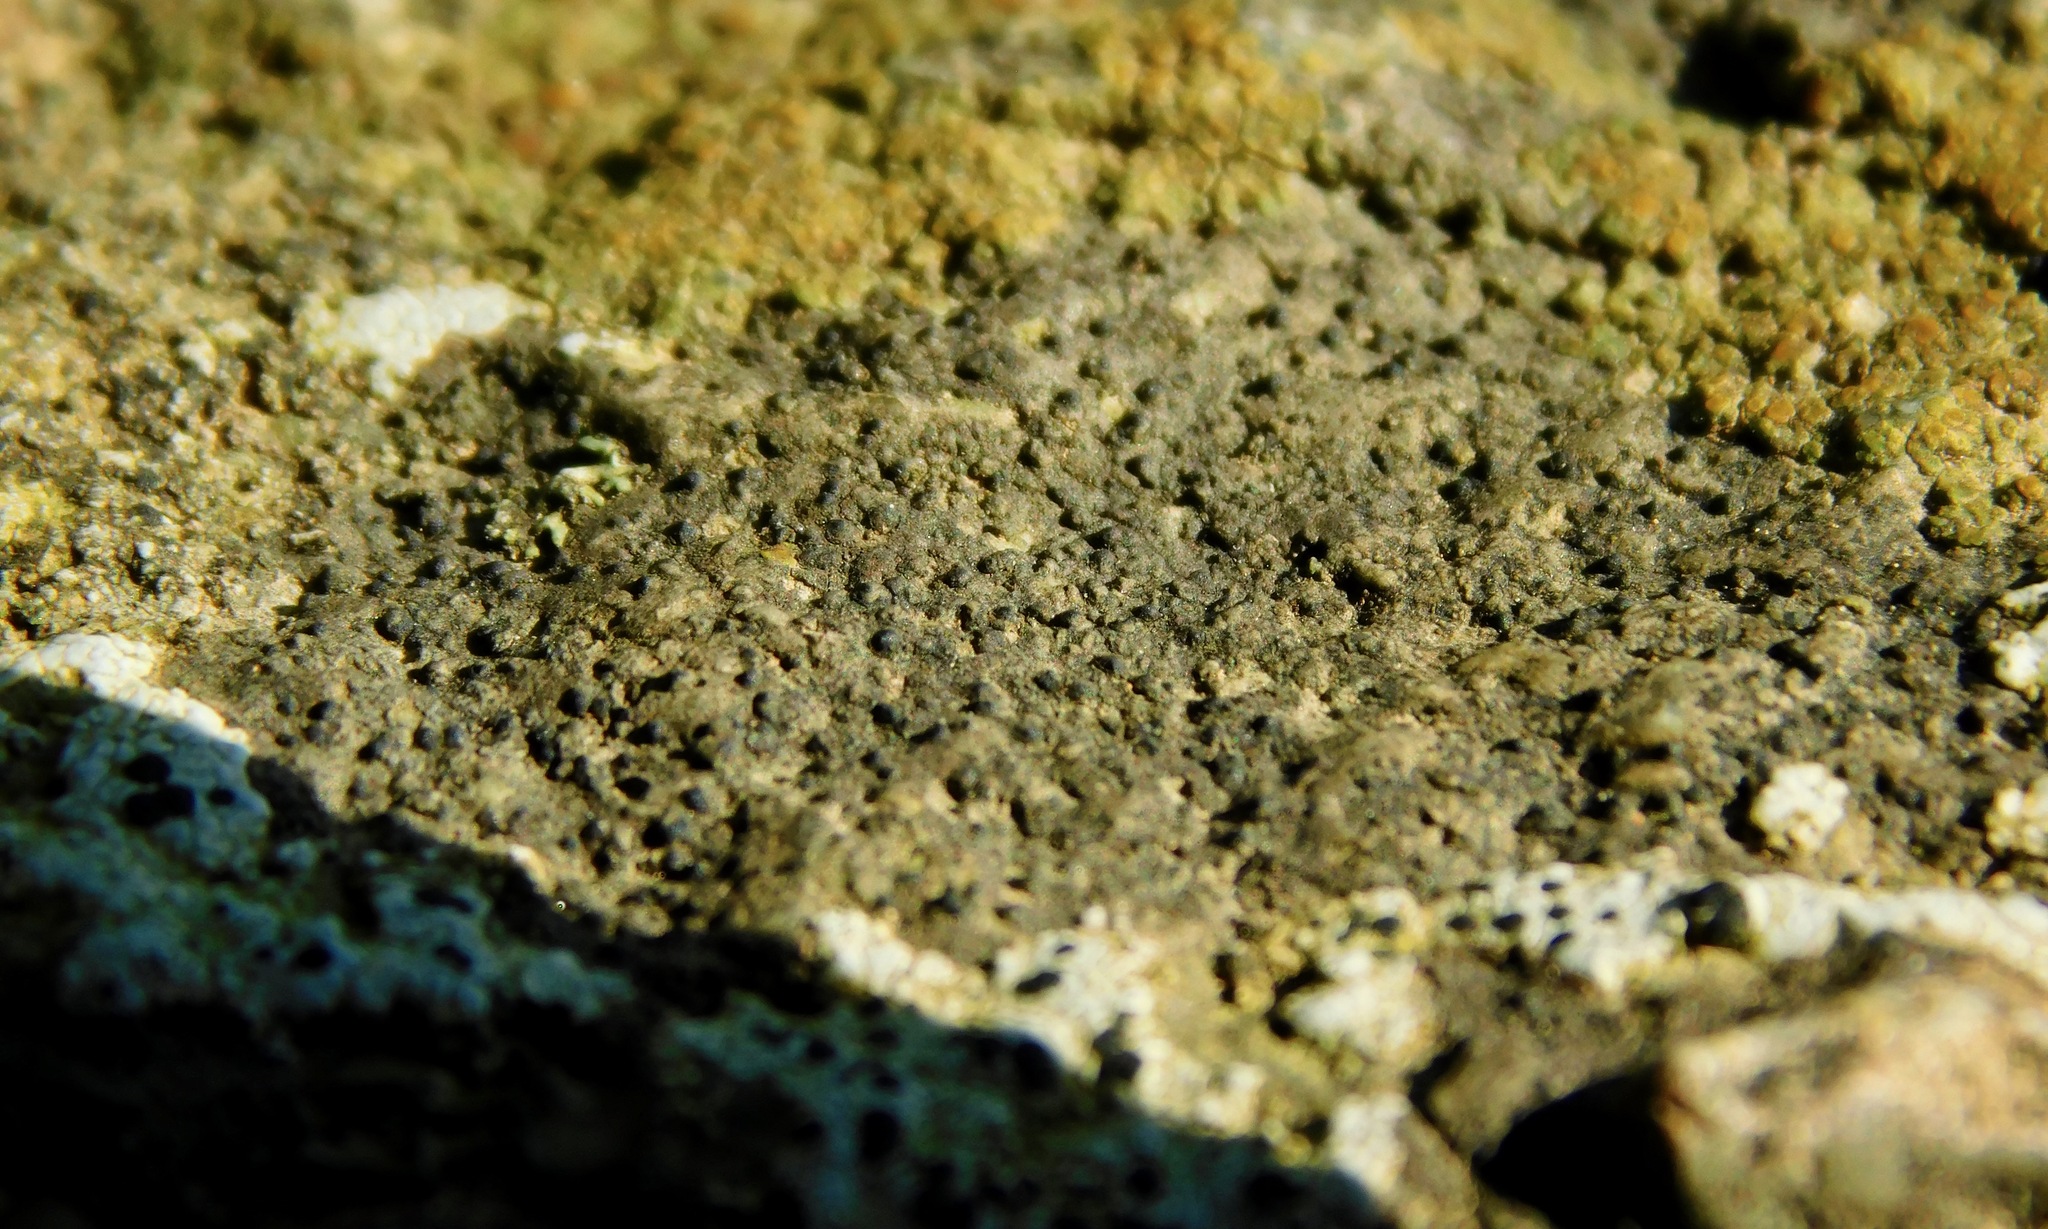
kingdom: Fungi
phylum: Ascomycota
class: Eurotiomycetes
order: Verrucariales
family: Verrucariaceae
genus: Staurothele
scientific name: Staurothele fissa
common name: Lakezone lichen
